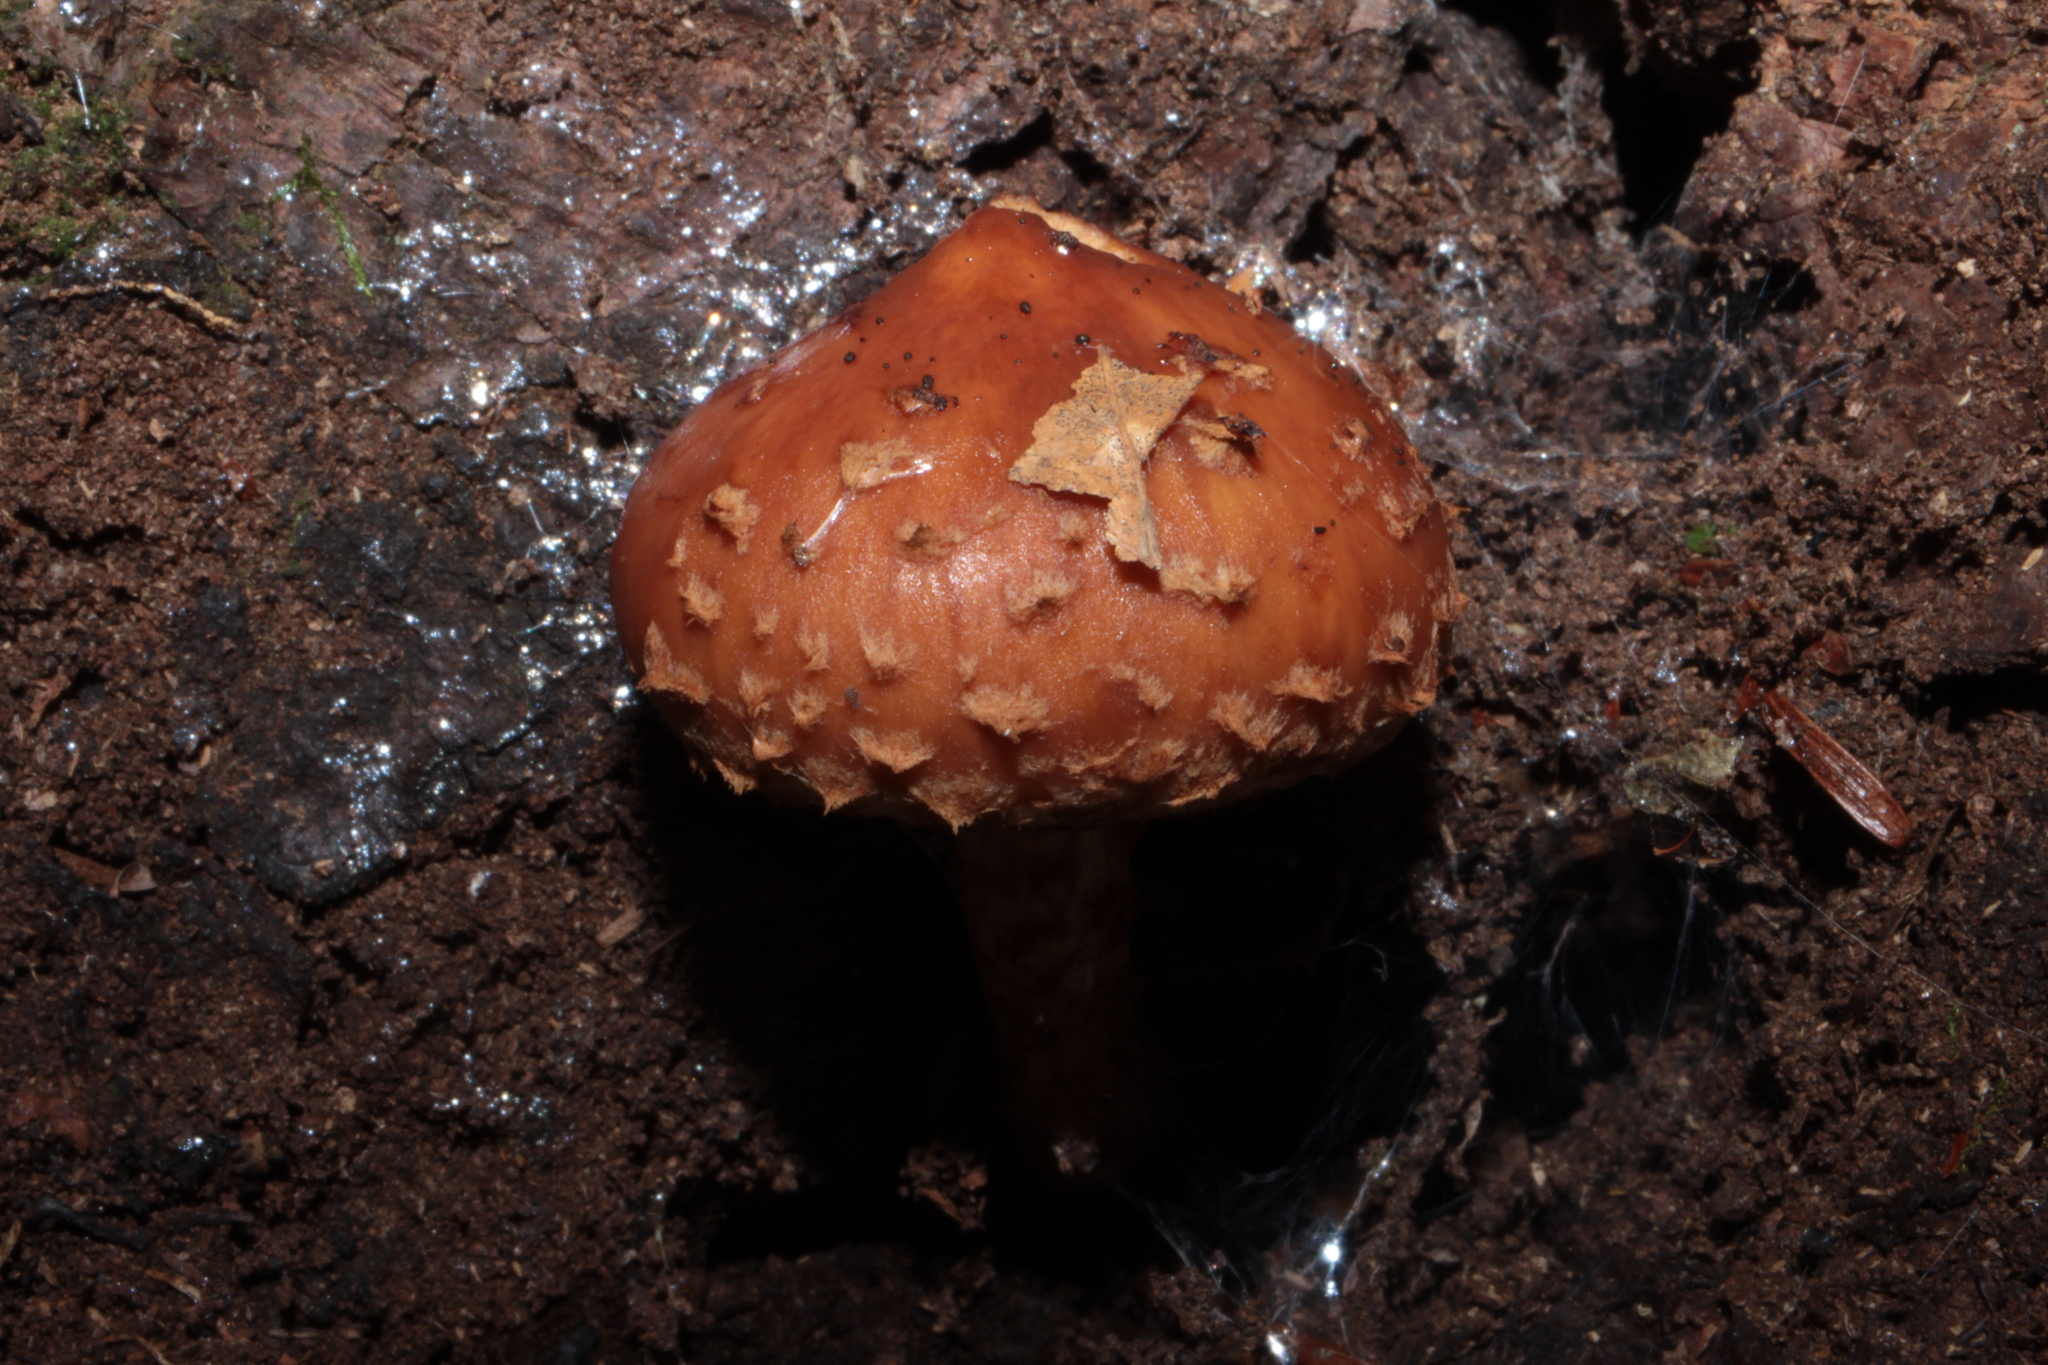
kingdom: Fungi
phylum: Basidiomycota
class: Agaricomycetes
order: Agaricales
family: Tubariaceae
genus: Hemistropharia
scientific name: Hemistropharia albocrenulata
